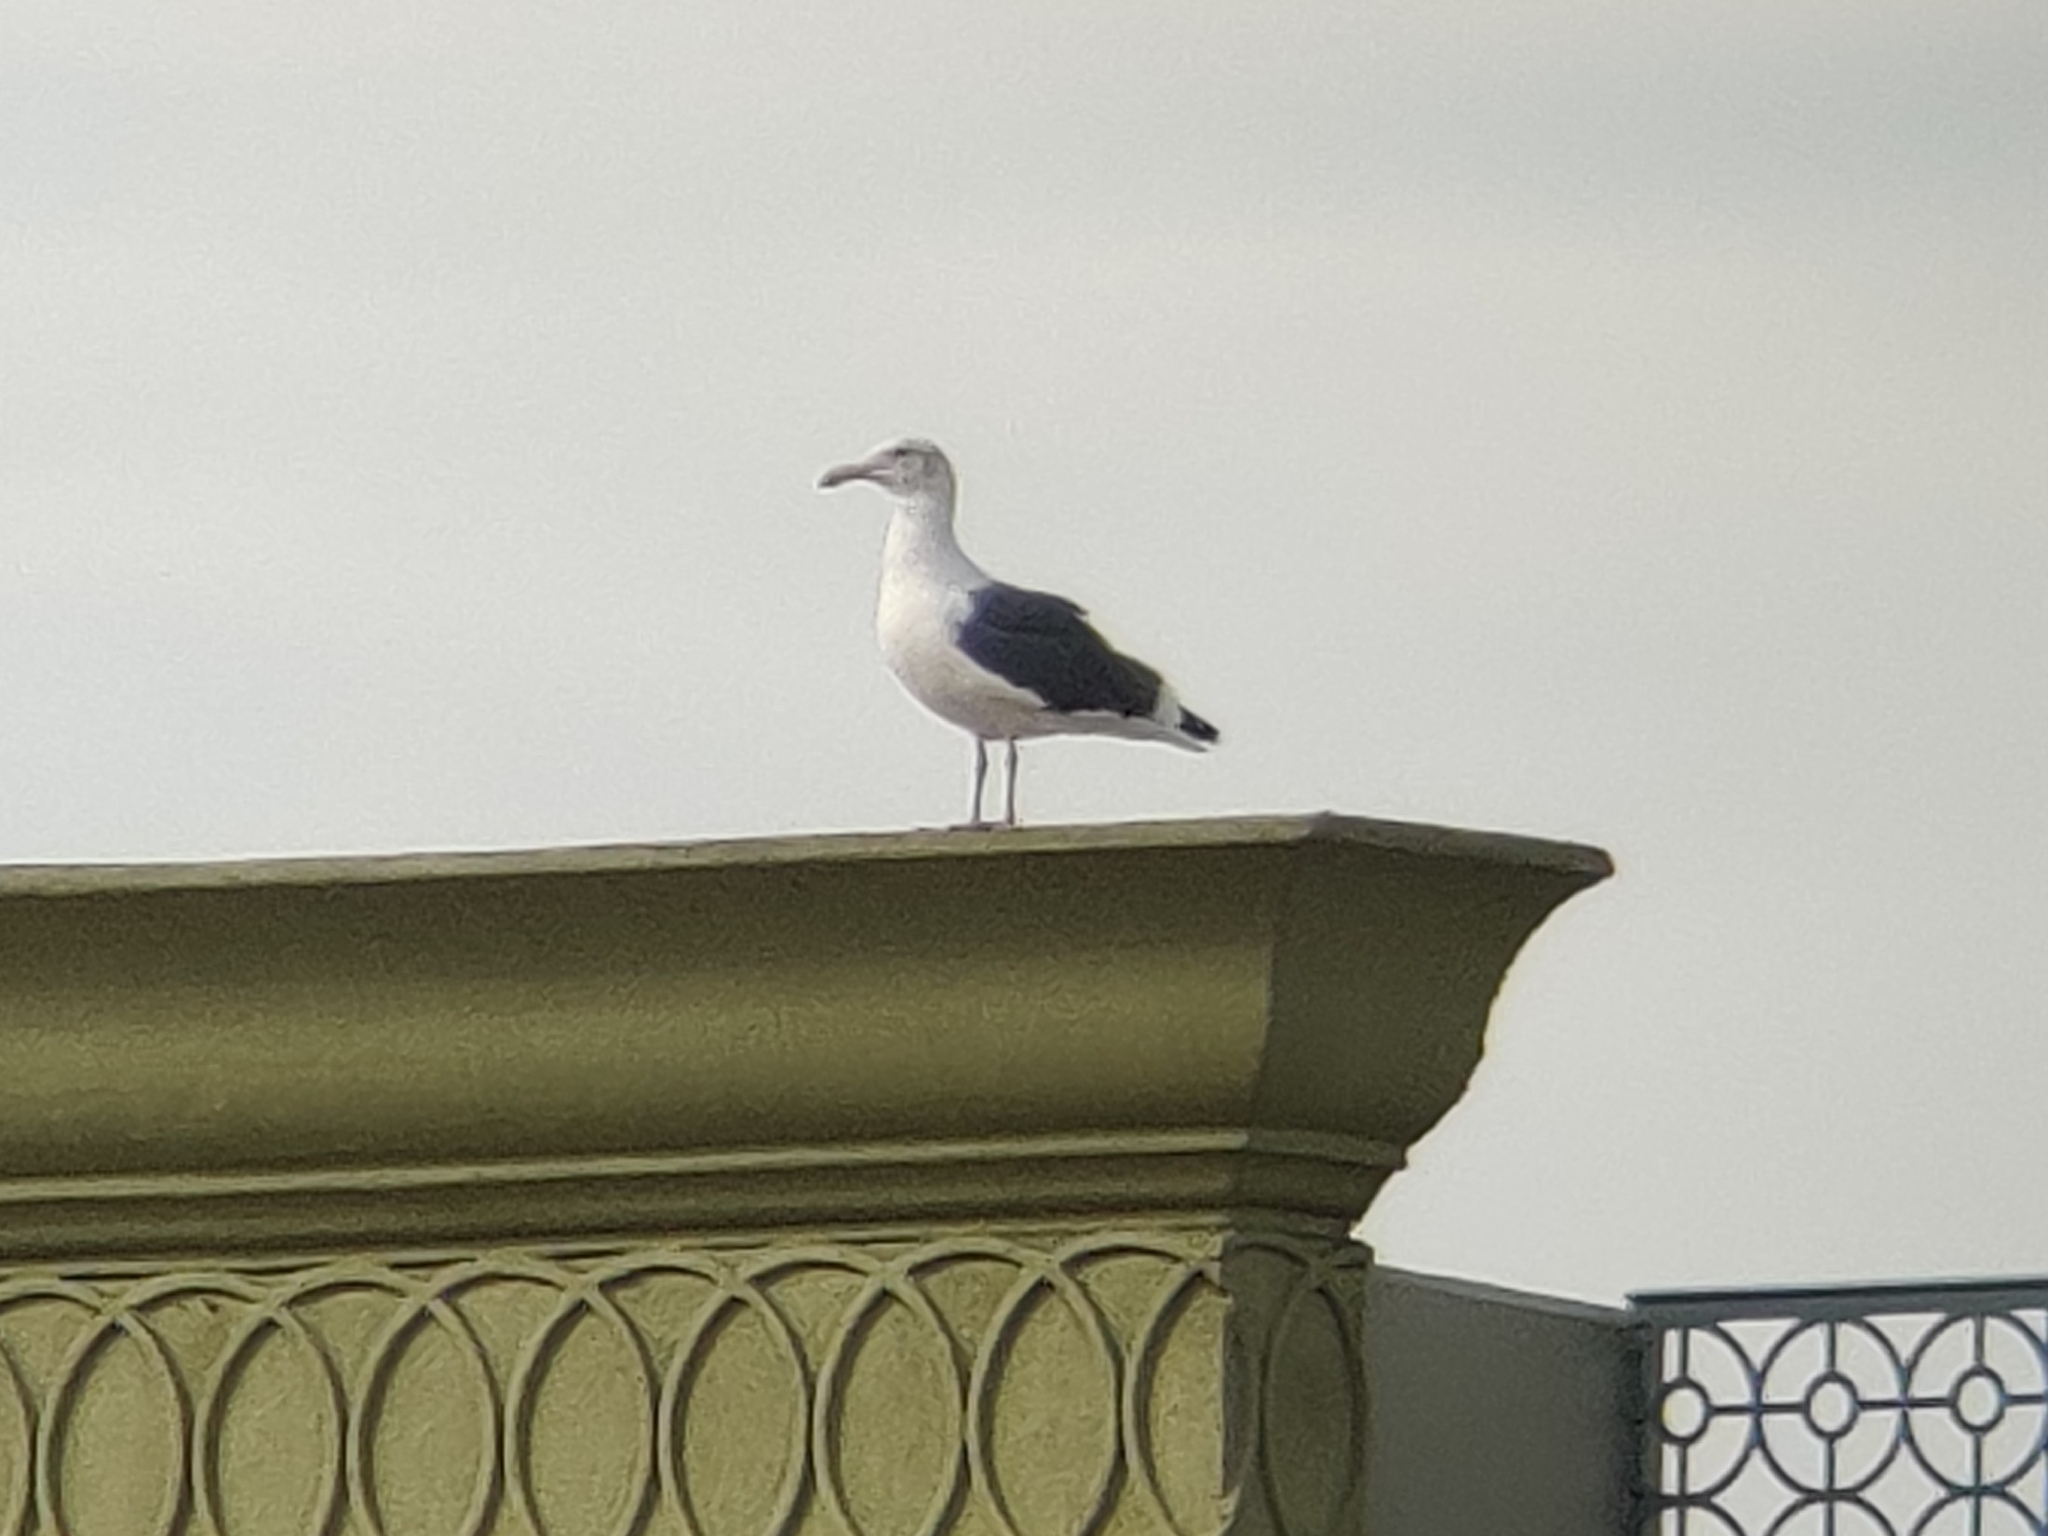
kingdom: Animalia
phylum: Chordata
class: Aves
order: Charadriiformes
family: Laridae
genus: Larus
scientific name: Larus occidentalis
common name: Western gull
